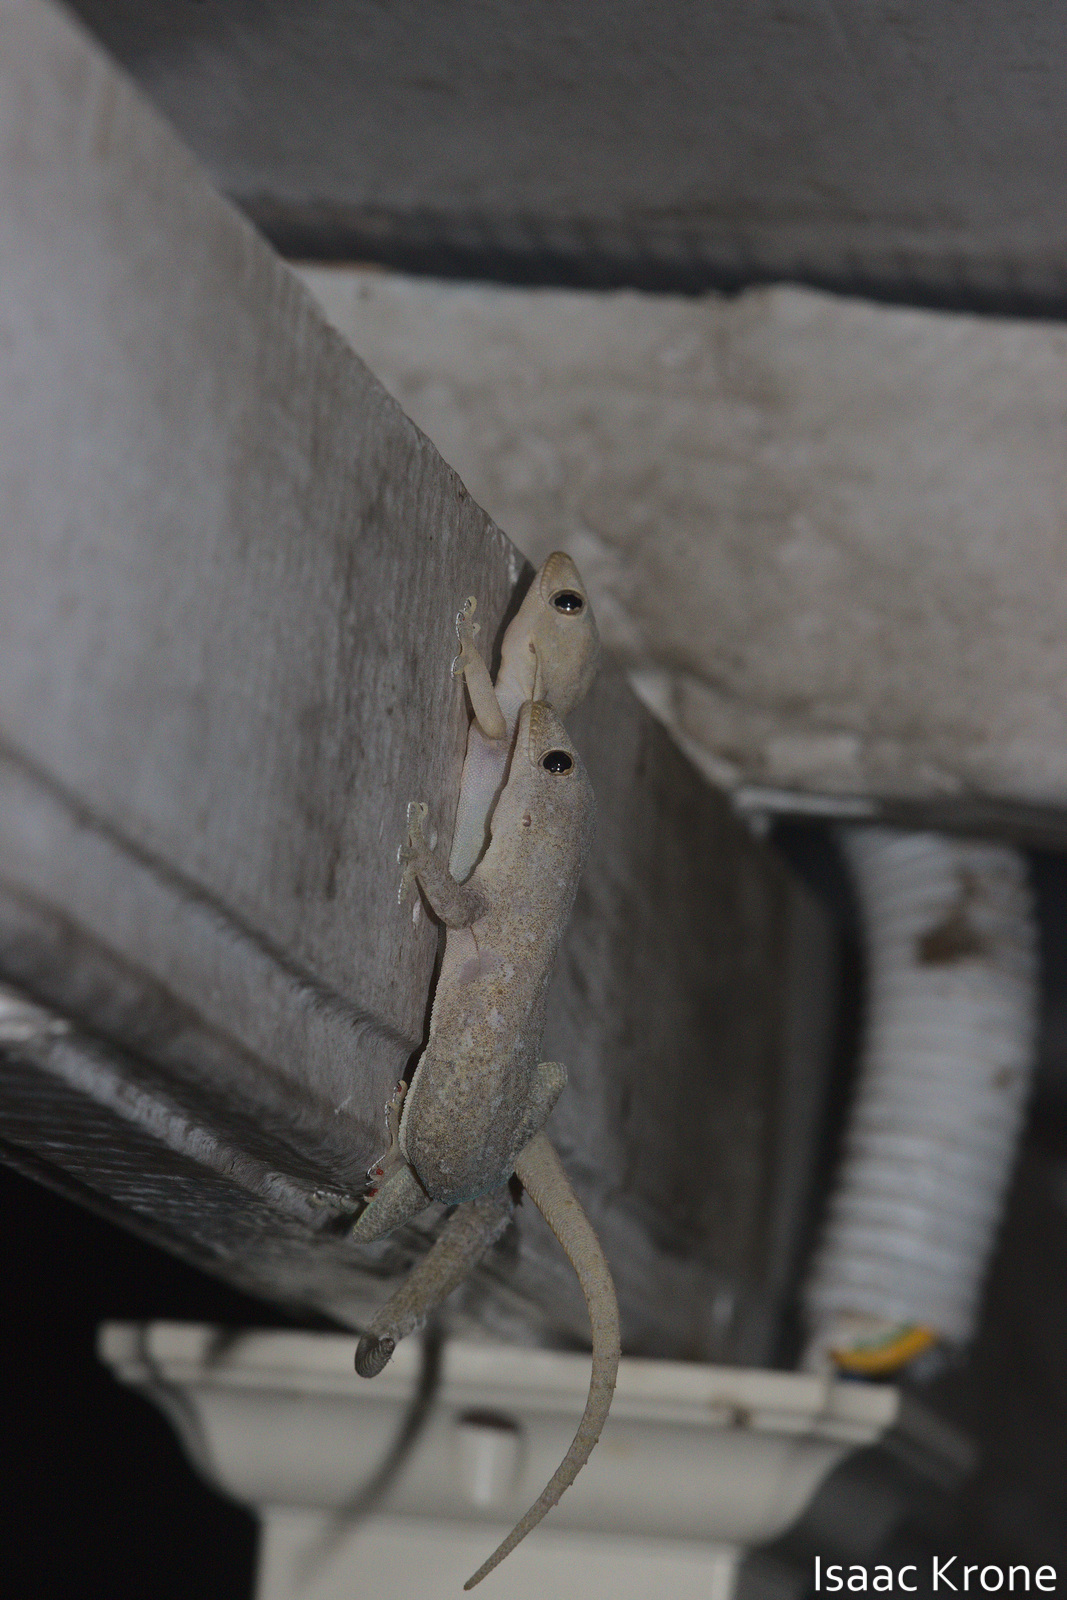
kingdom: Animalia
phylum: Chordata
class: Squamata
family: Gekkonidae
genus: Hemidactylus
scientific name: Hemidactylus frenatus
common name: Common house gecko
